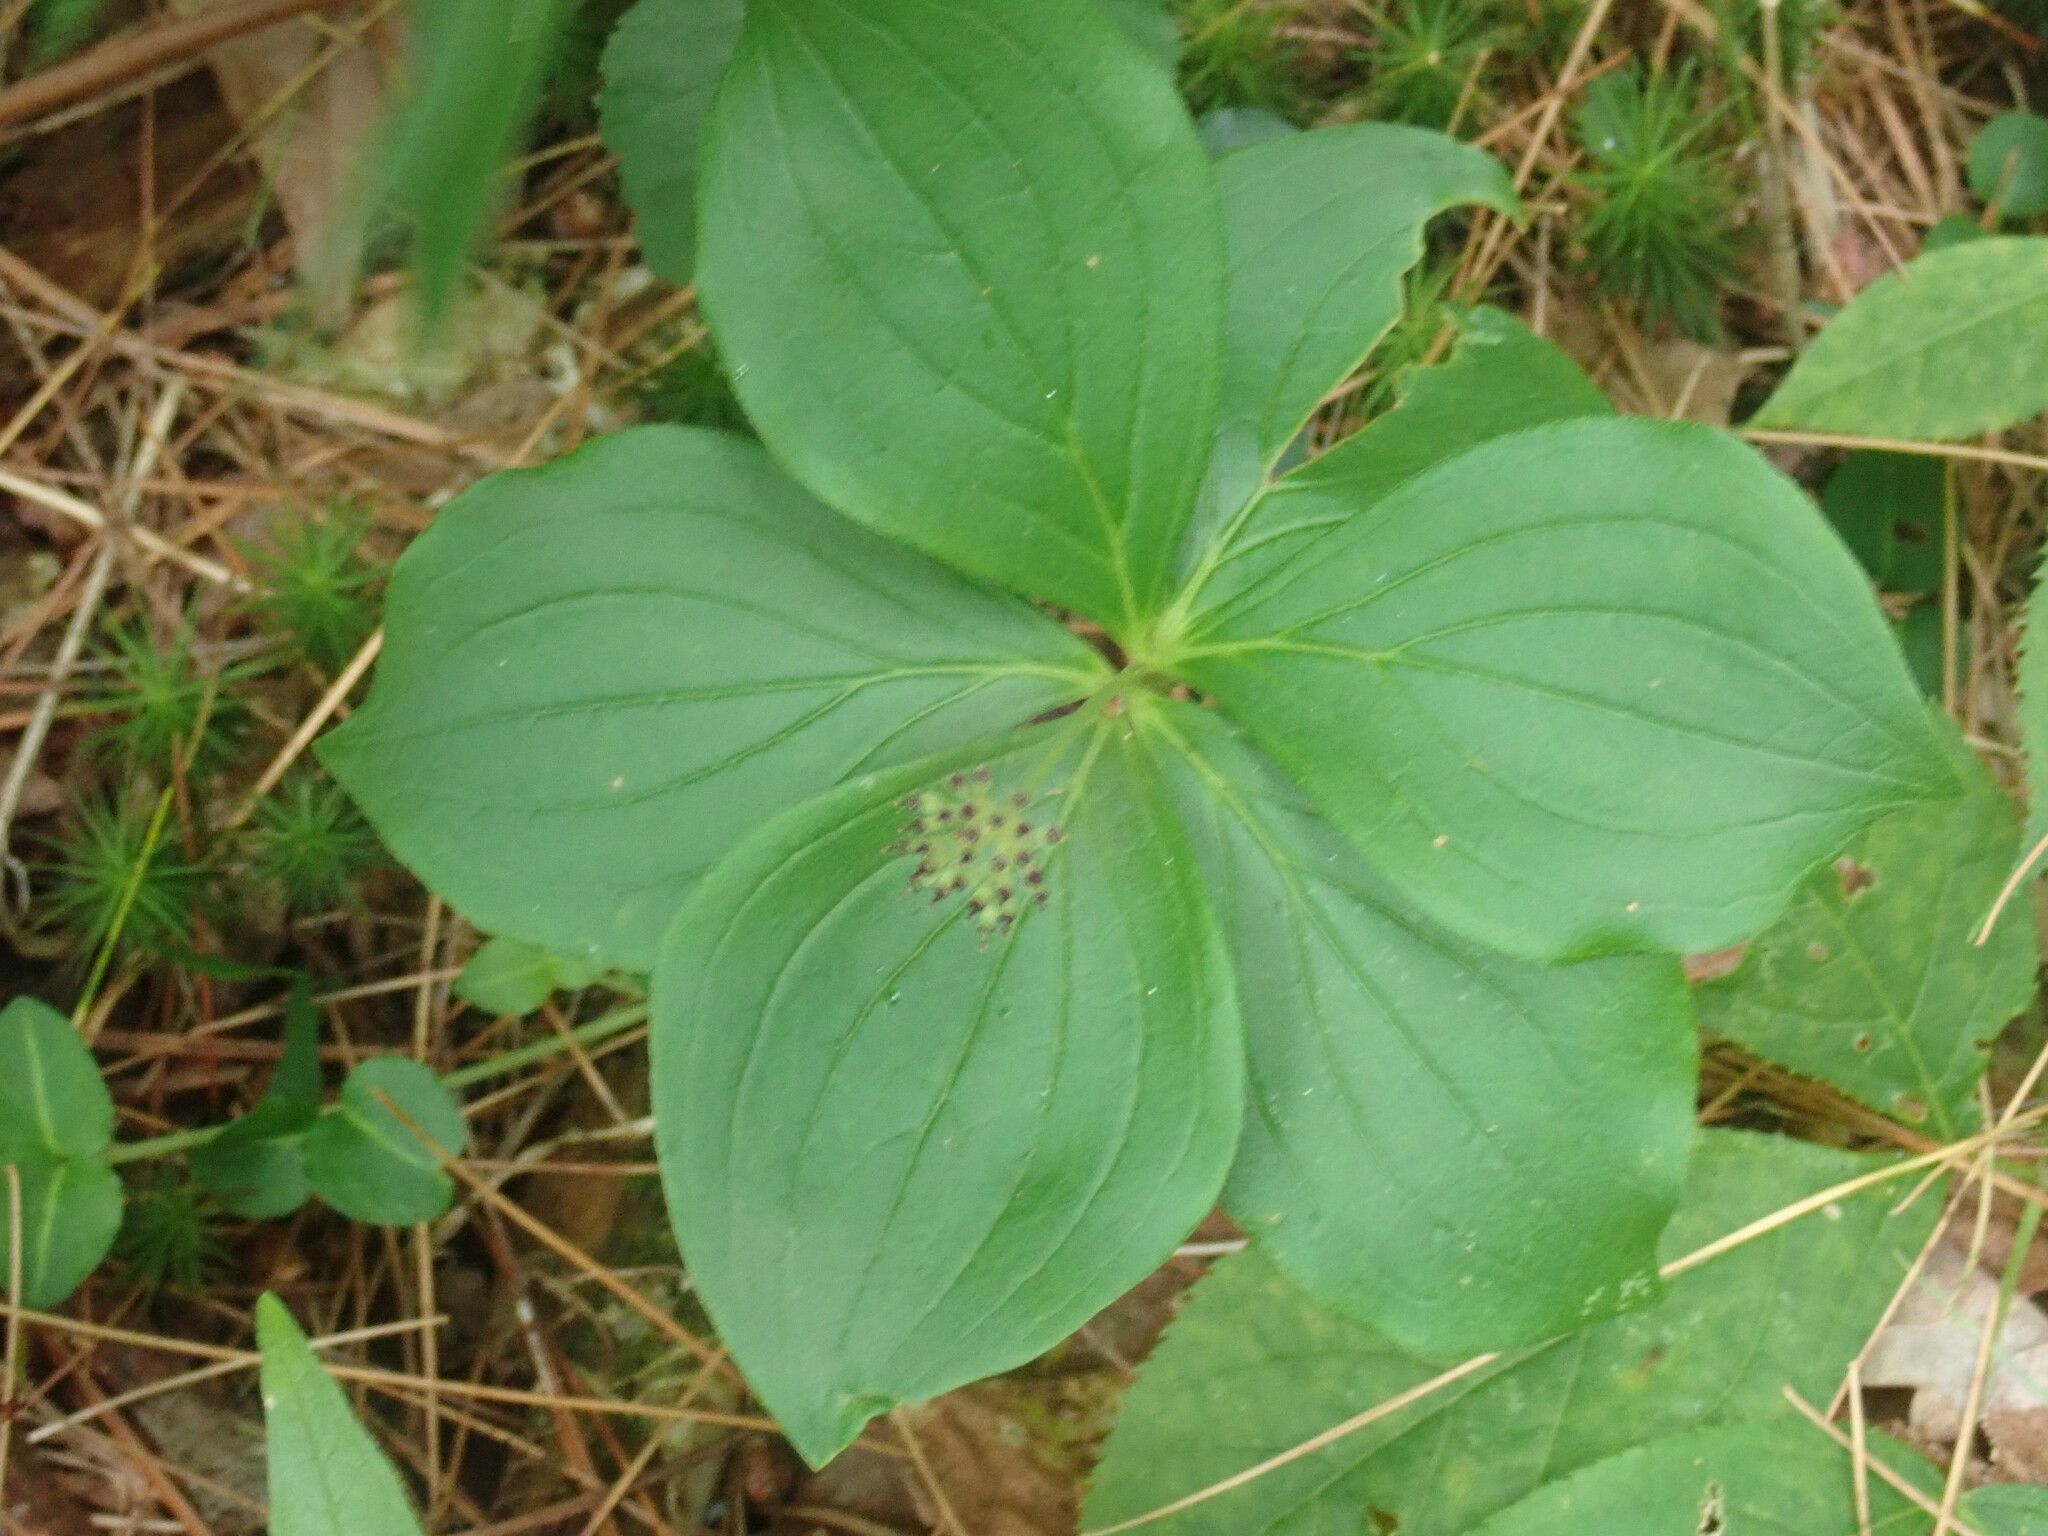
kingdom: Plantae
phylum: Tracheophyta
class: Magnoliopsida
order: Cornales
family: Cornaceae
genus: Cornus
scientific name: Cornus canadensis
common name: Creeping dogwood
